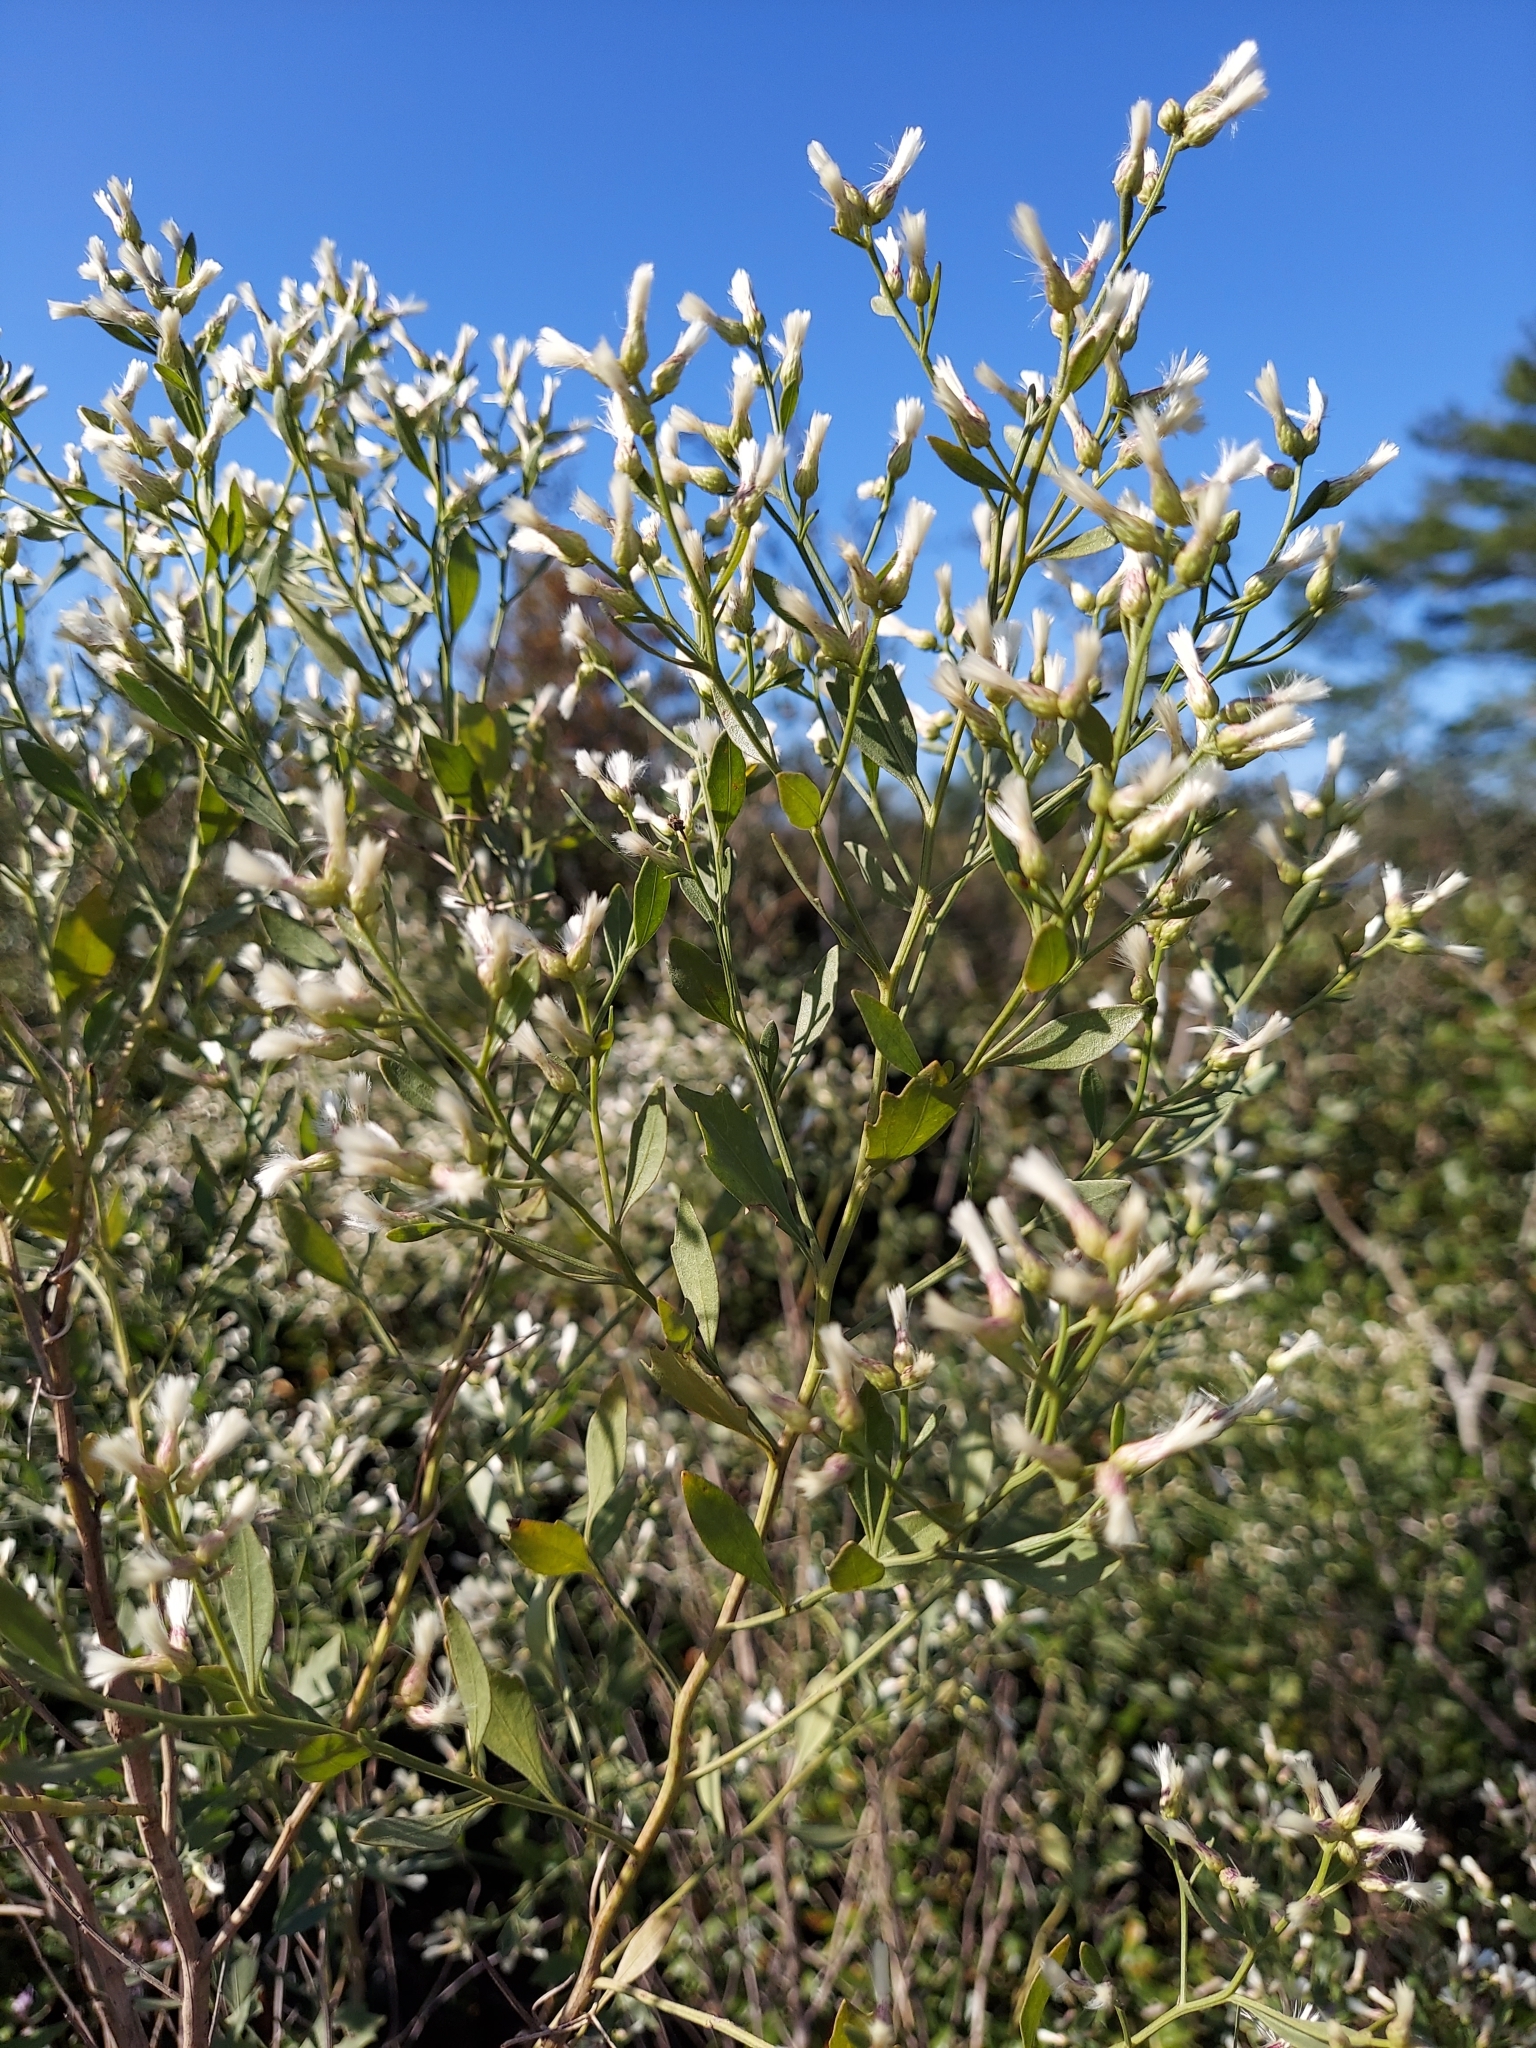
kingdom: Plantae
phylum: Tracheophyta
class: Magnoliopsida
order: Asterales
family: Asteraceae
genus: Baccharis
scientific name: Baccharis halimifolia
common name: Eastern baccharis
